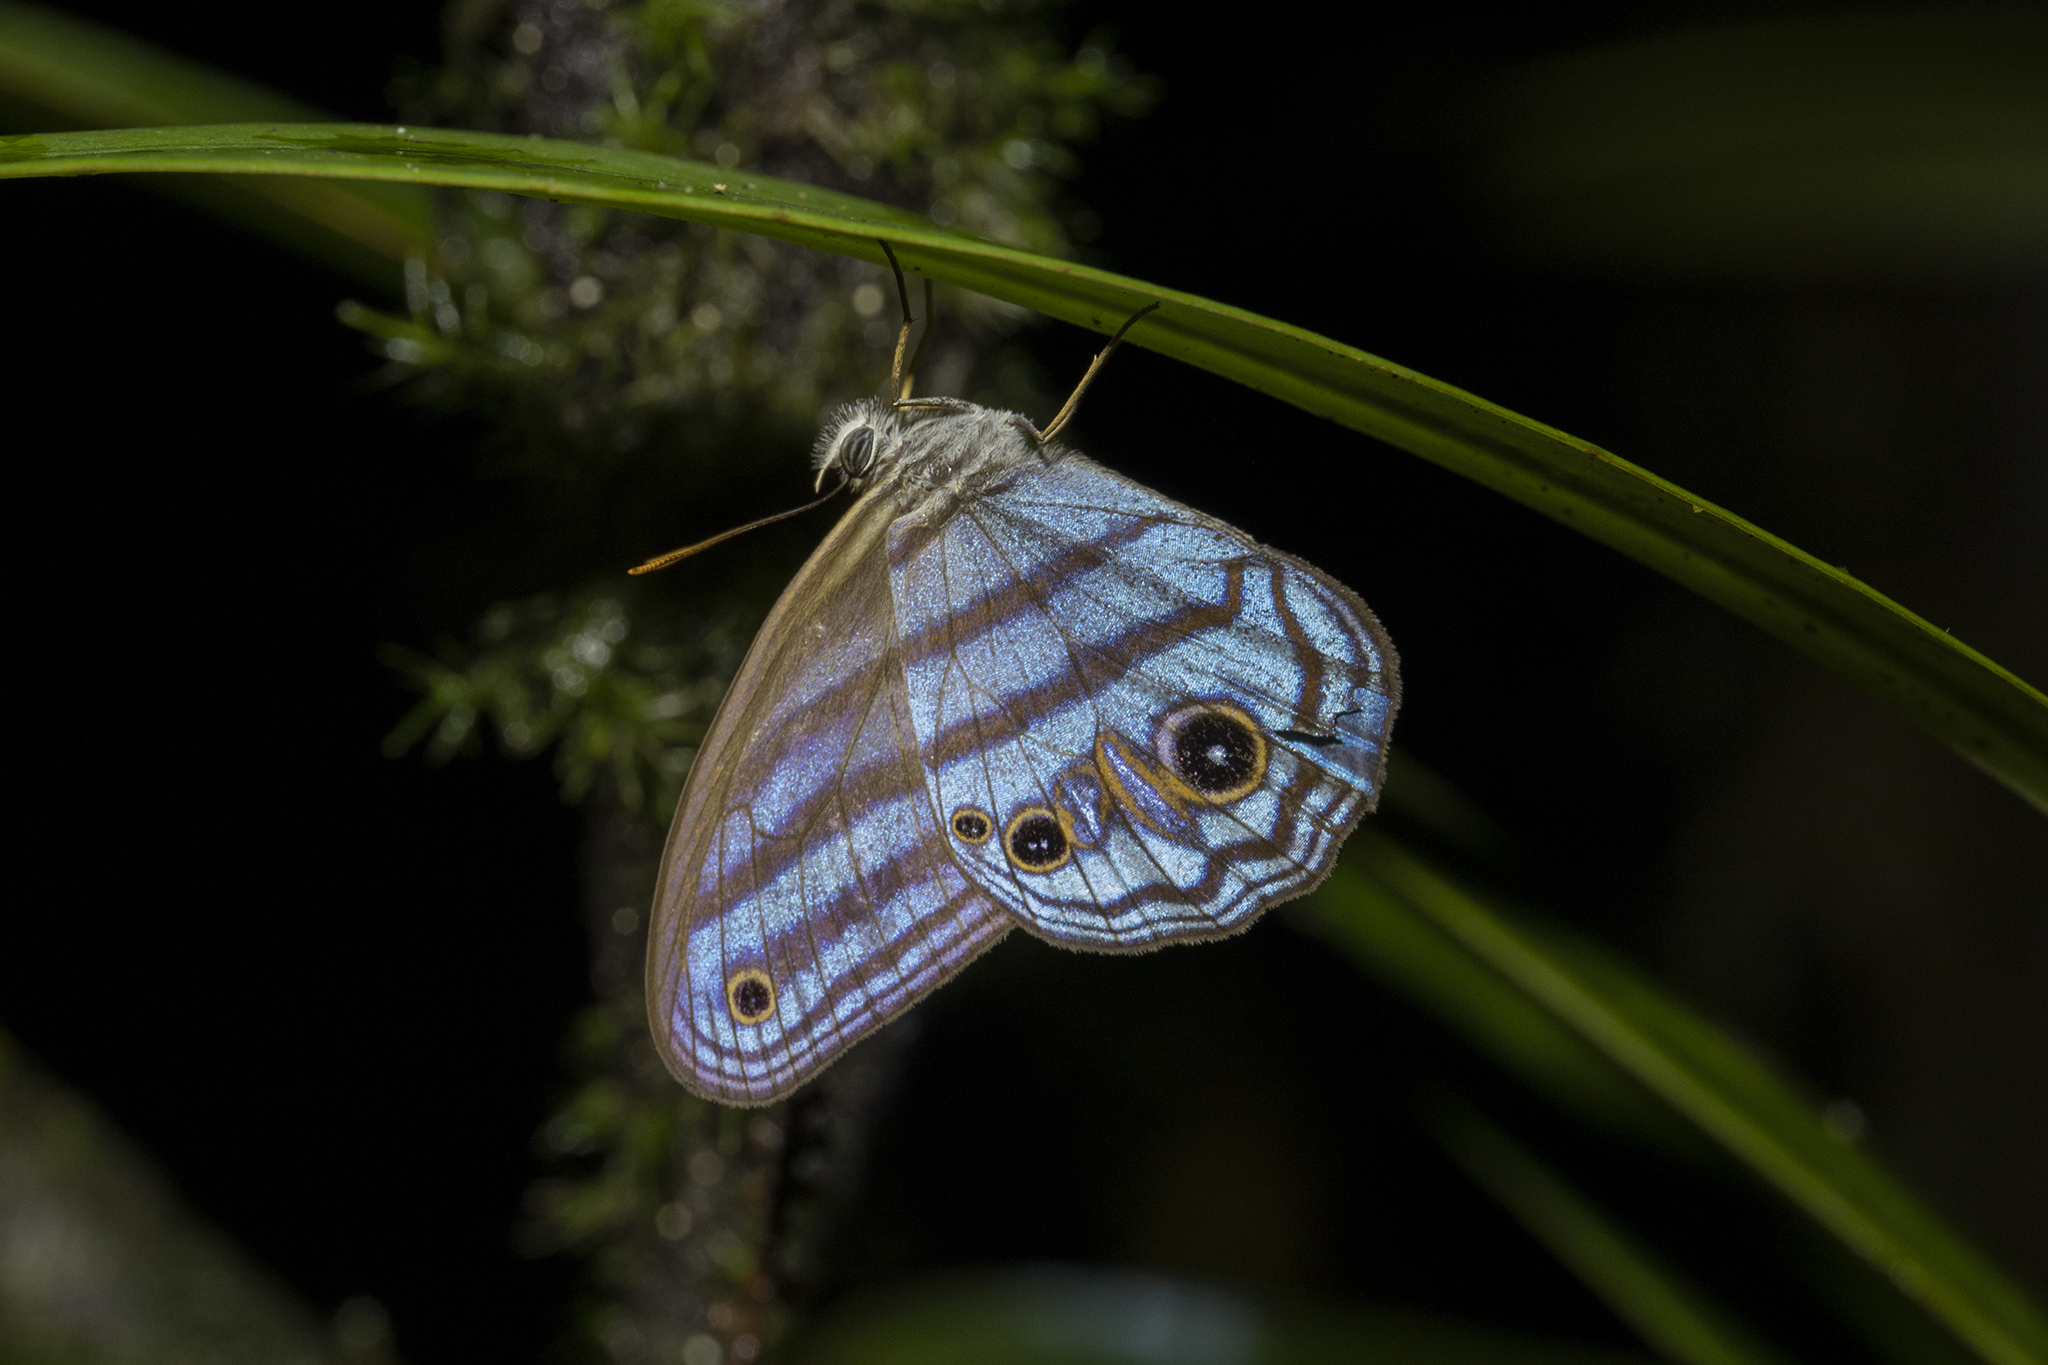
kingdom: Animalia
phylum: Arthropoda
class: Insecta
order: Lepidoptera
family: Nymphalidae
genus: Chloreuptychia
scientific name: Chloreuptychia chloris
